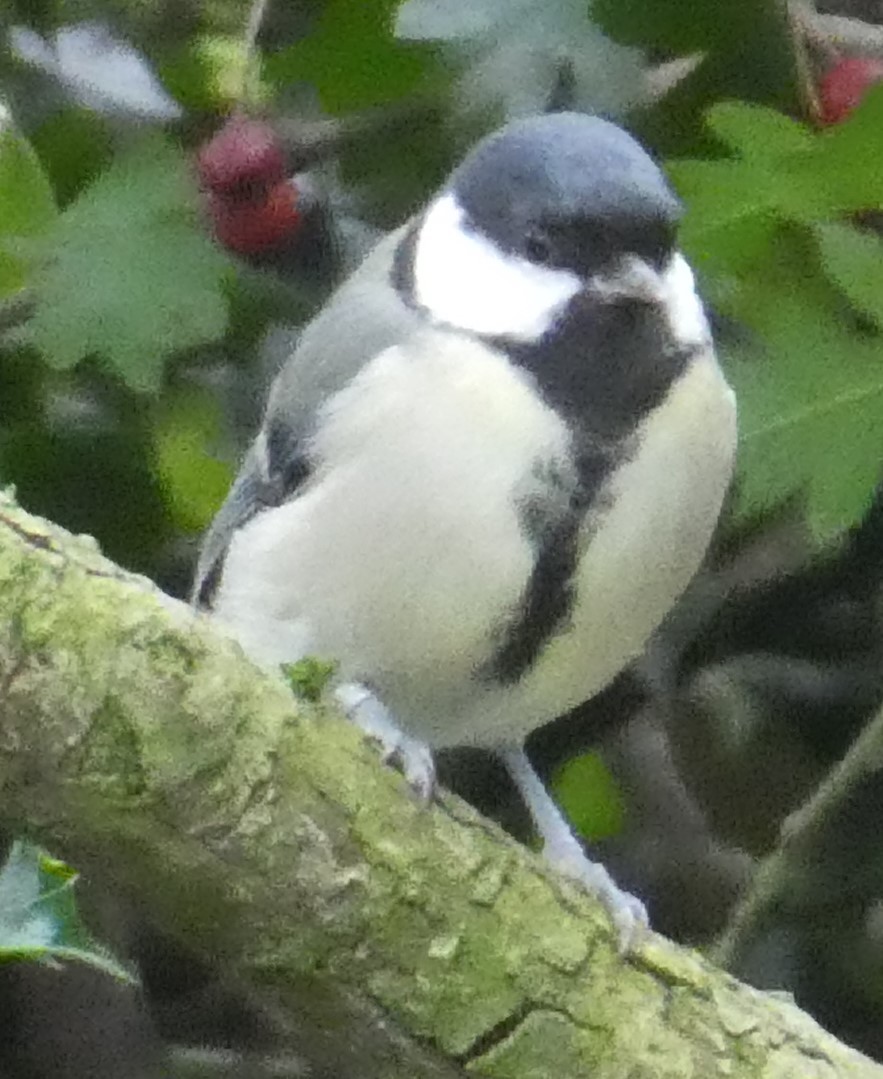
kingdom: Animalia
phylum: Chordata
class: Aves
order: Passeriformes
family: Paridae
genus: Parus
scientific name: Parus major
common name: Great tit
